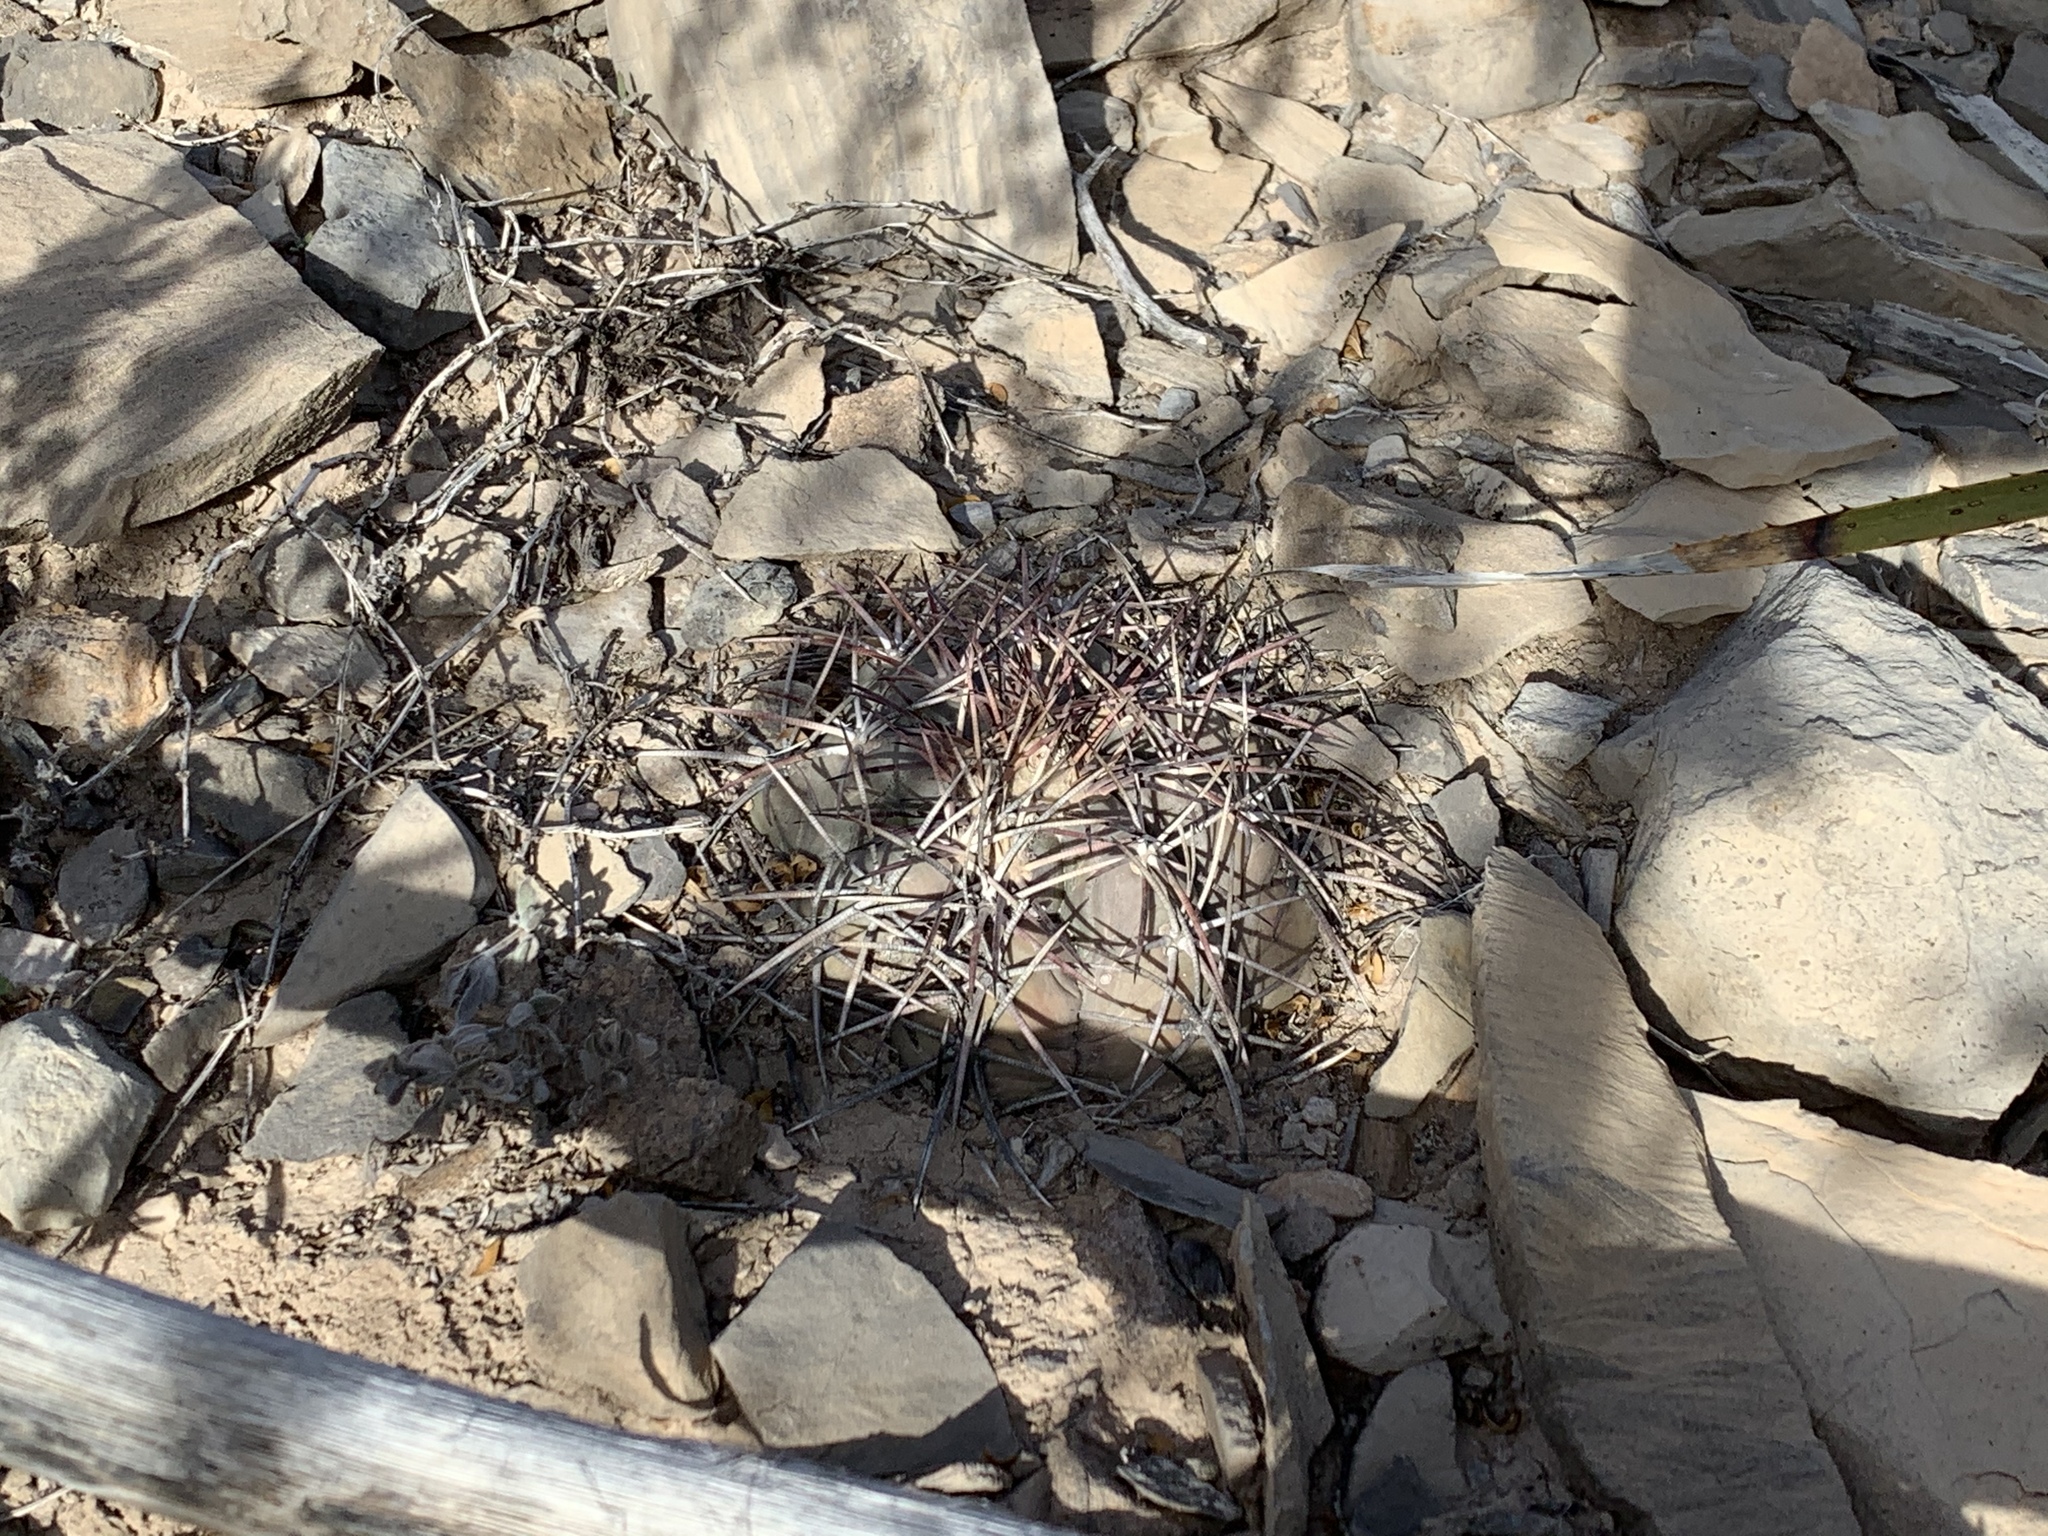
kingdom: Plantae
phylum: Tracheophyta
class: Magnoliopsida
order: Caryophyllales
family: Cactaceae
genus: Echinocactus
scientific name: Echinocactus horizonthalonius
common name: Devilshead
